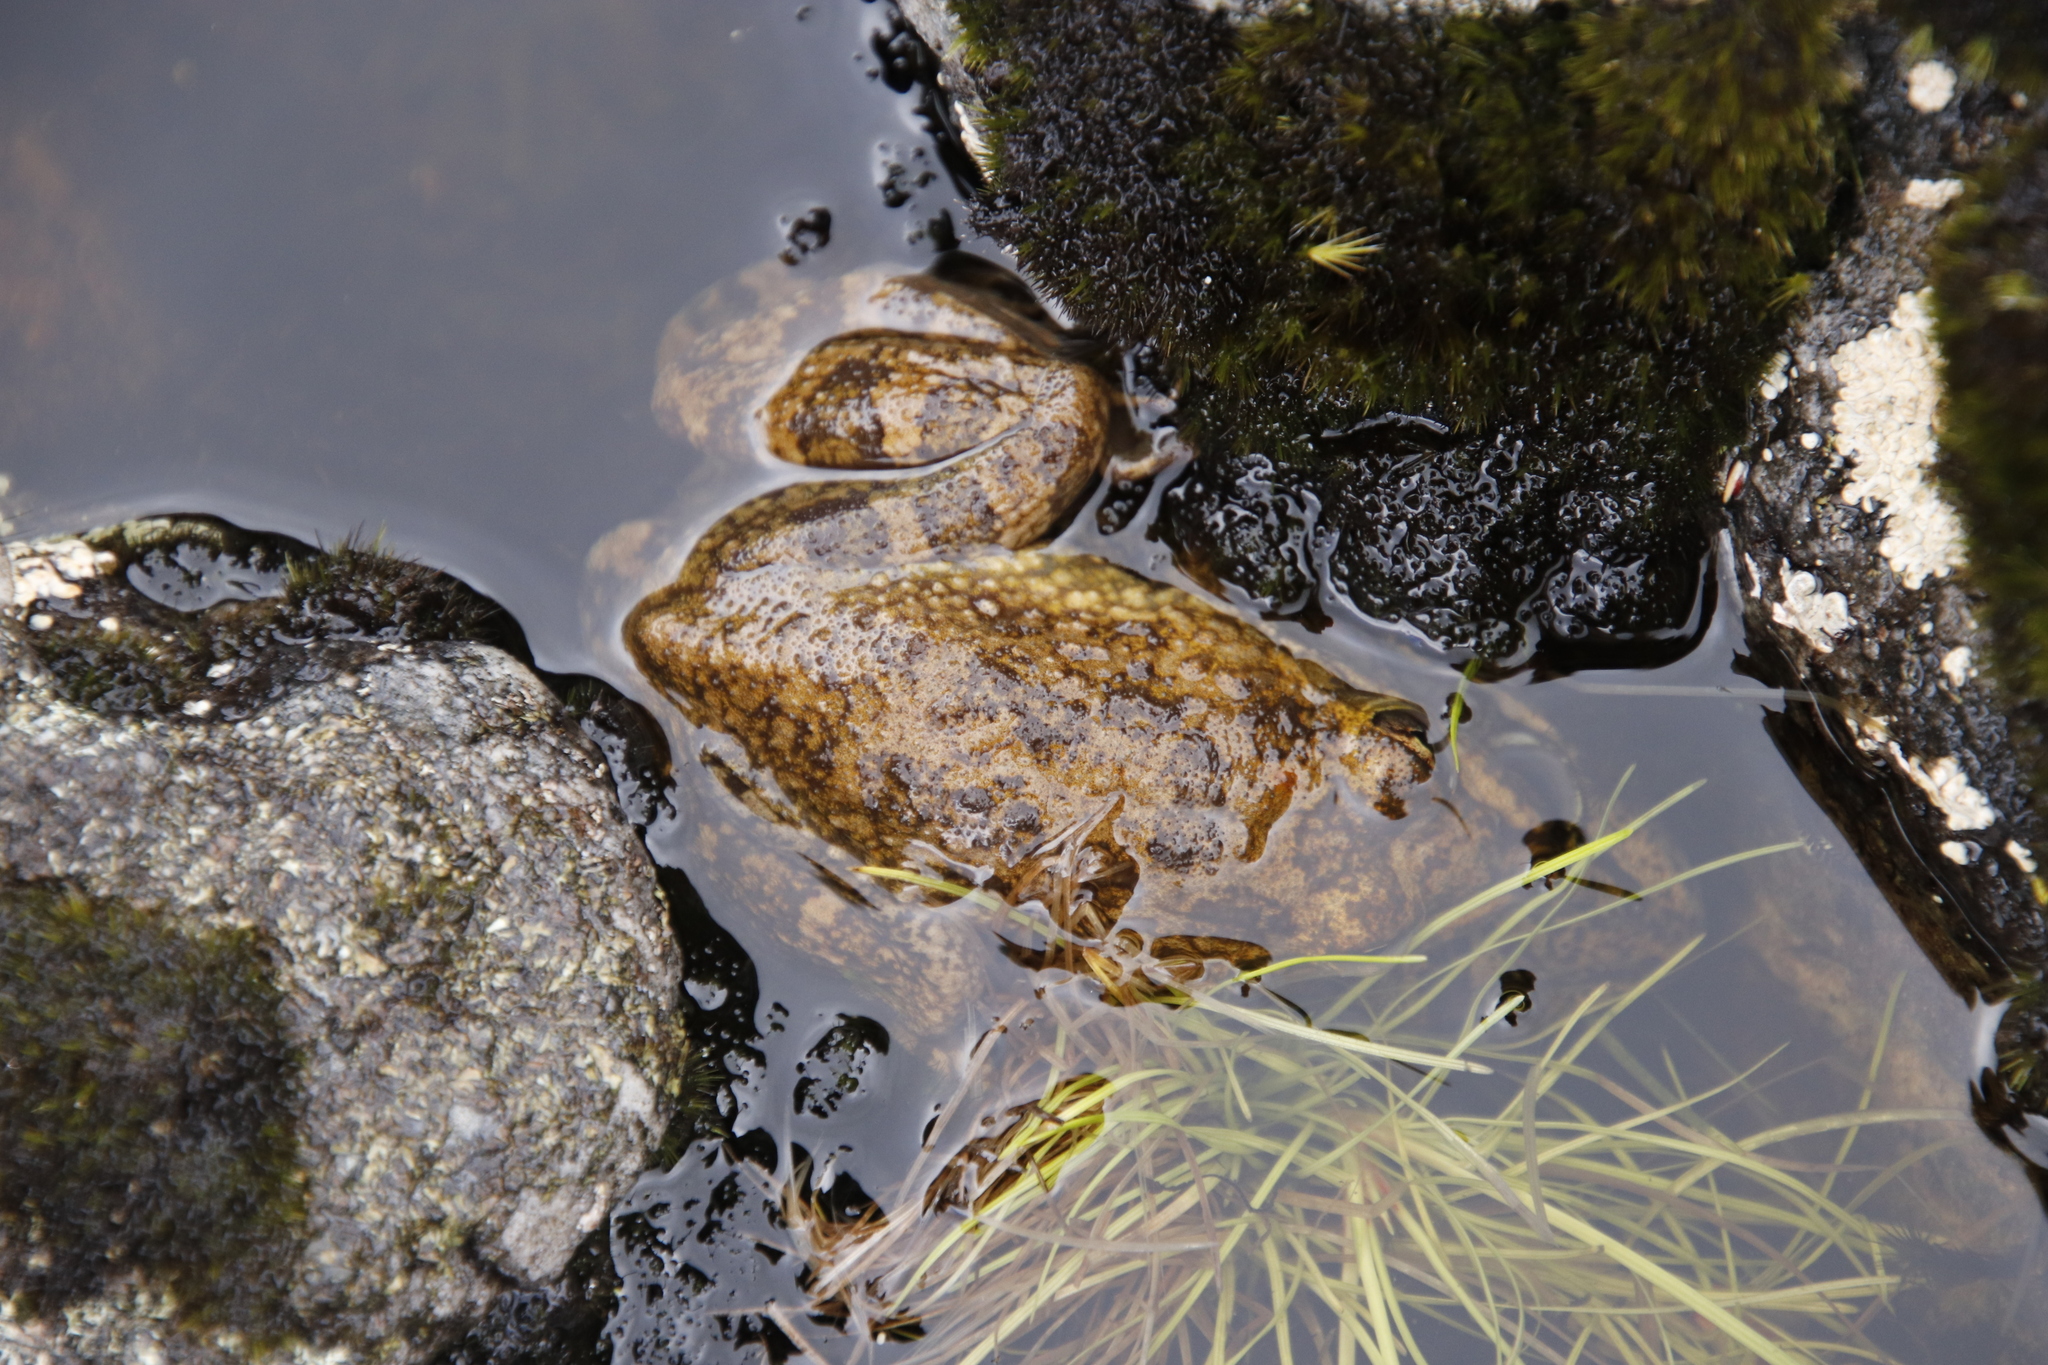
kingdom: Animalia
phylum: Chordata
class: Amphibia
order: Anura
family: Pyxicephalidae
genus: Amietia
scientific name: Amietia fuscigula
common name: Cape rana
